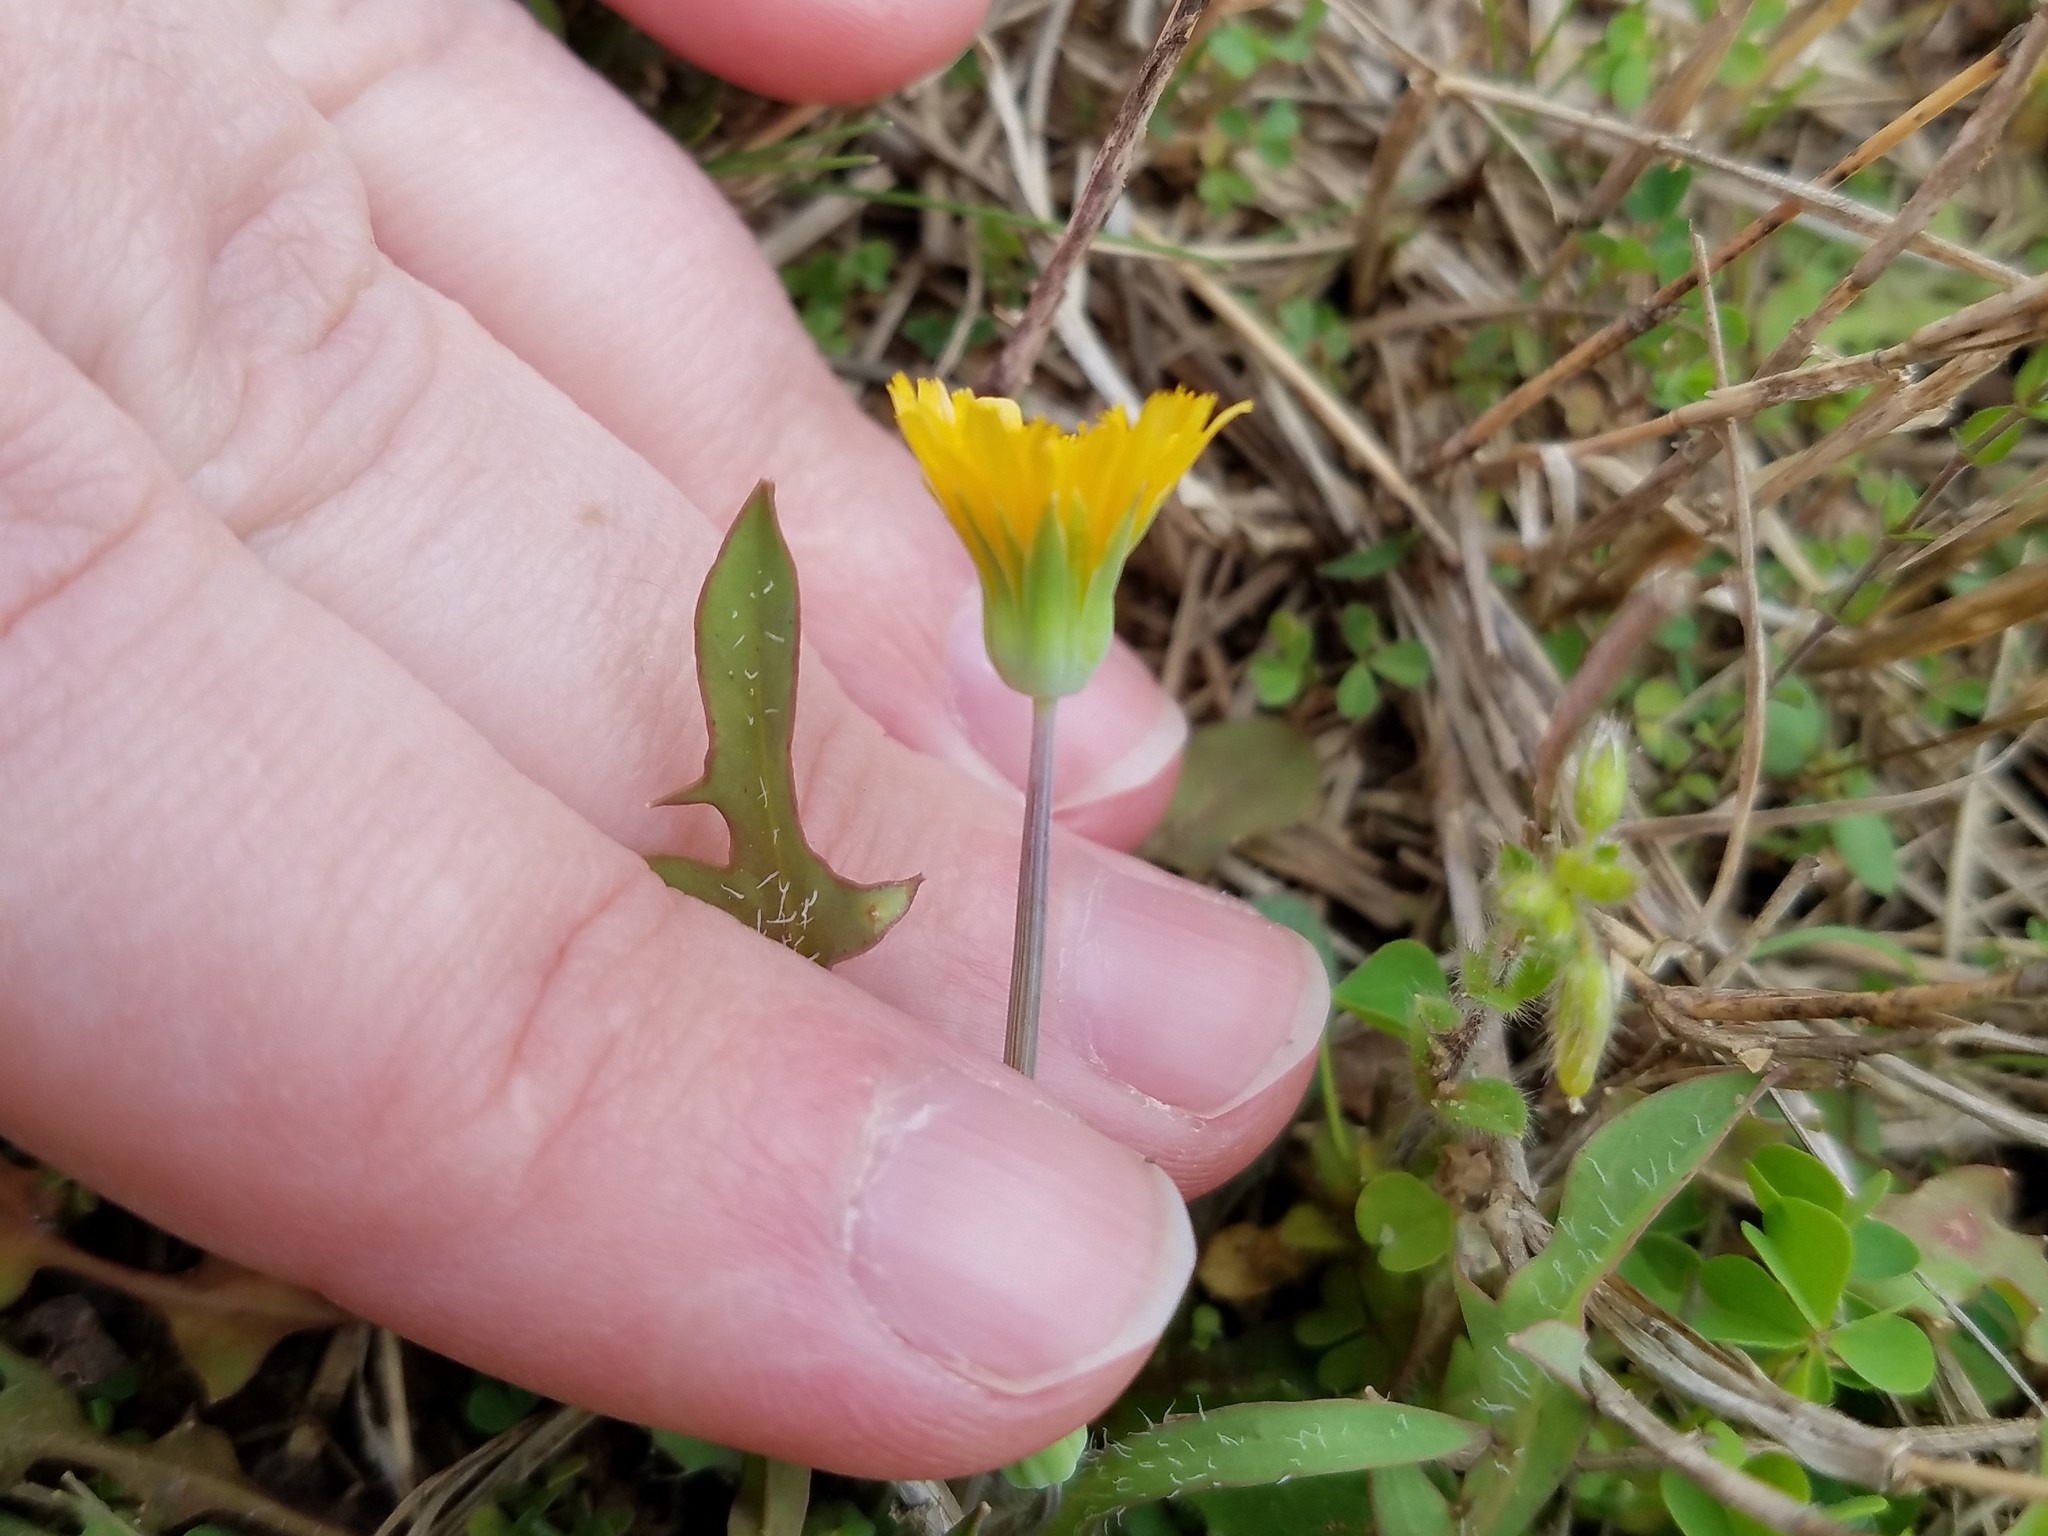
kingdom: Plantae
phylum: Tracheophyta
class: Magnoliopsida
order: Asterales
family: Asteraceae
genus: Krigia
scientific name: Krigia virginica
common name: Virginia dwarf-dandelion
